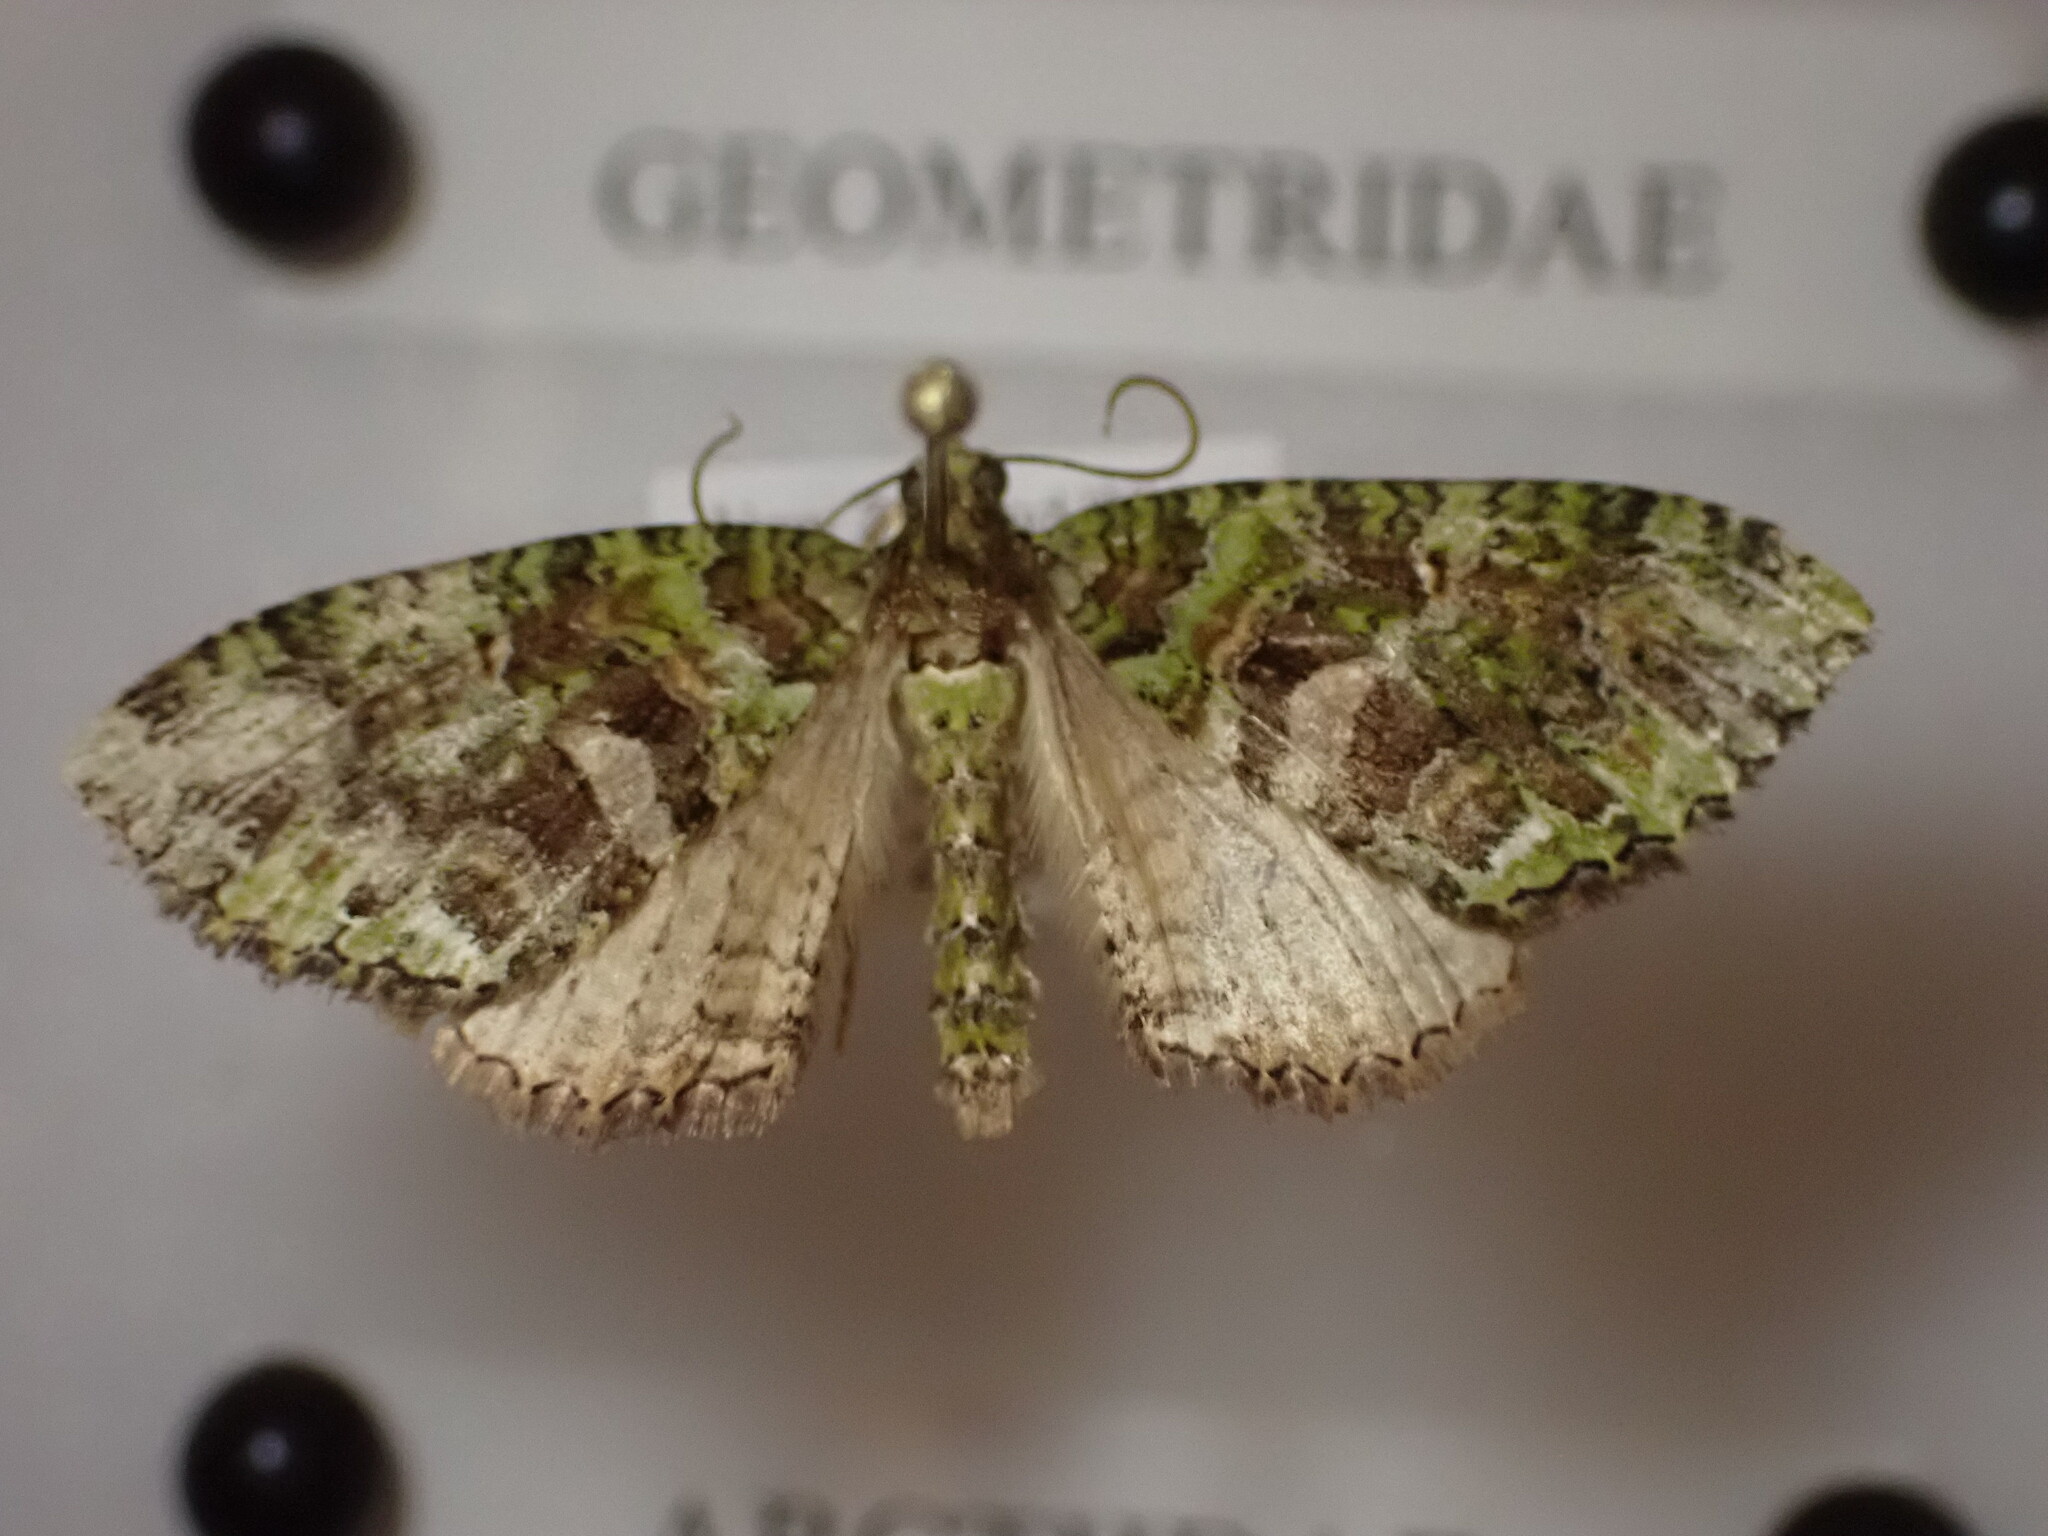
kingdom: Animalia
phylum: Arthropoda
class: Insecta
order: Lepidoptera
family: Geometridae
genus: Austrocidaria
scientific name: Austrocidaria similata
